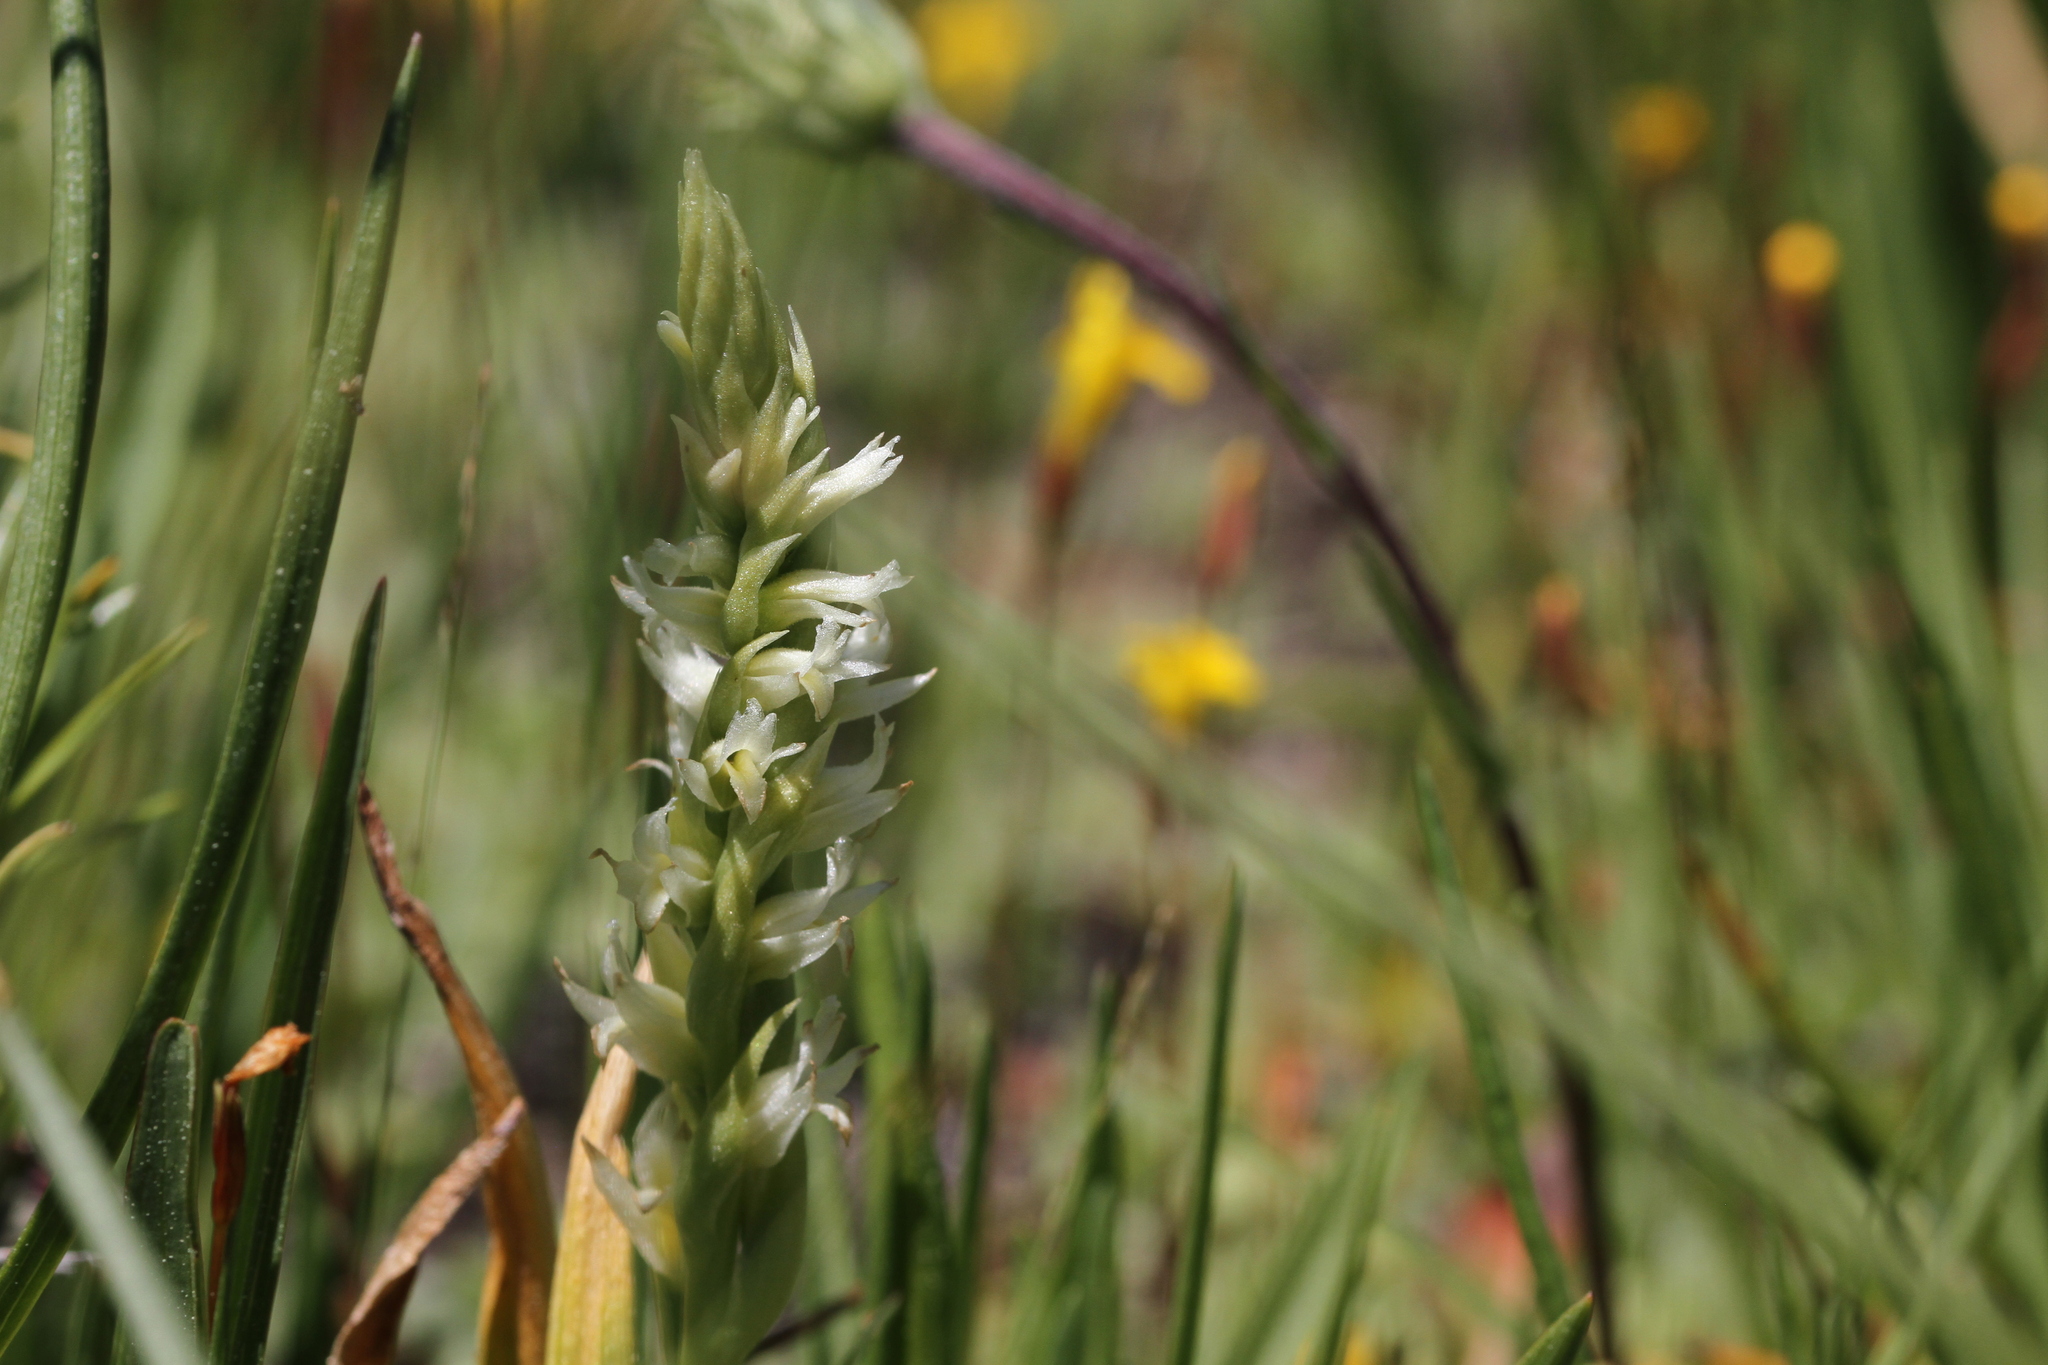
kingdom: Plantae
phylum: Tracheophyta
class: Liliopsida
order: Asparagales
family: Orchidaceae
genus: Spiranthes
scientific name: Spiranthes stellata
